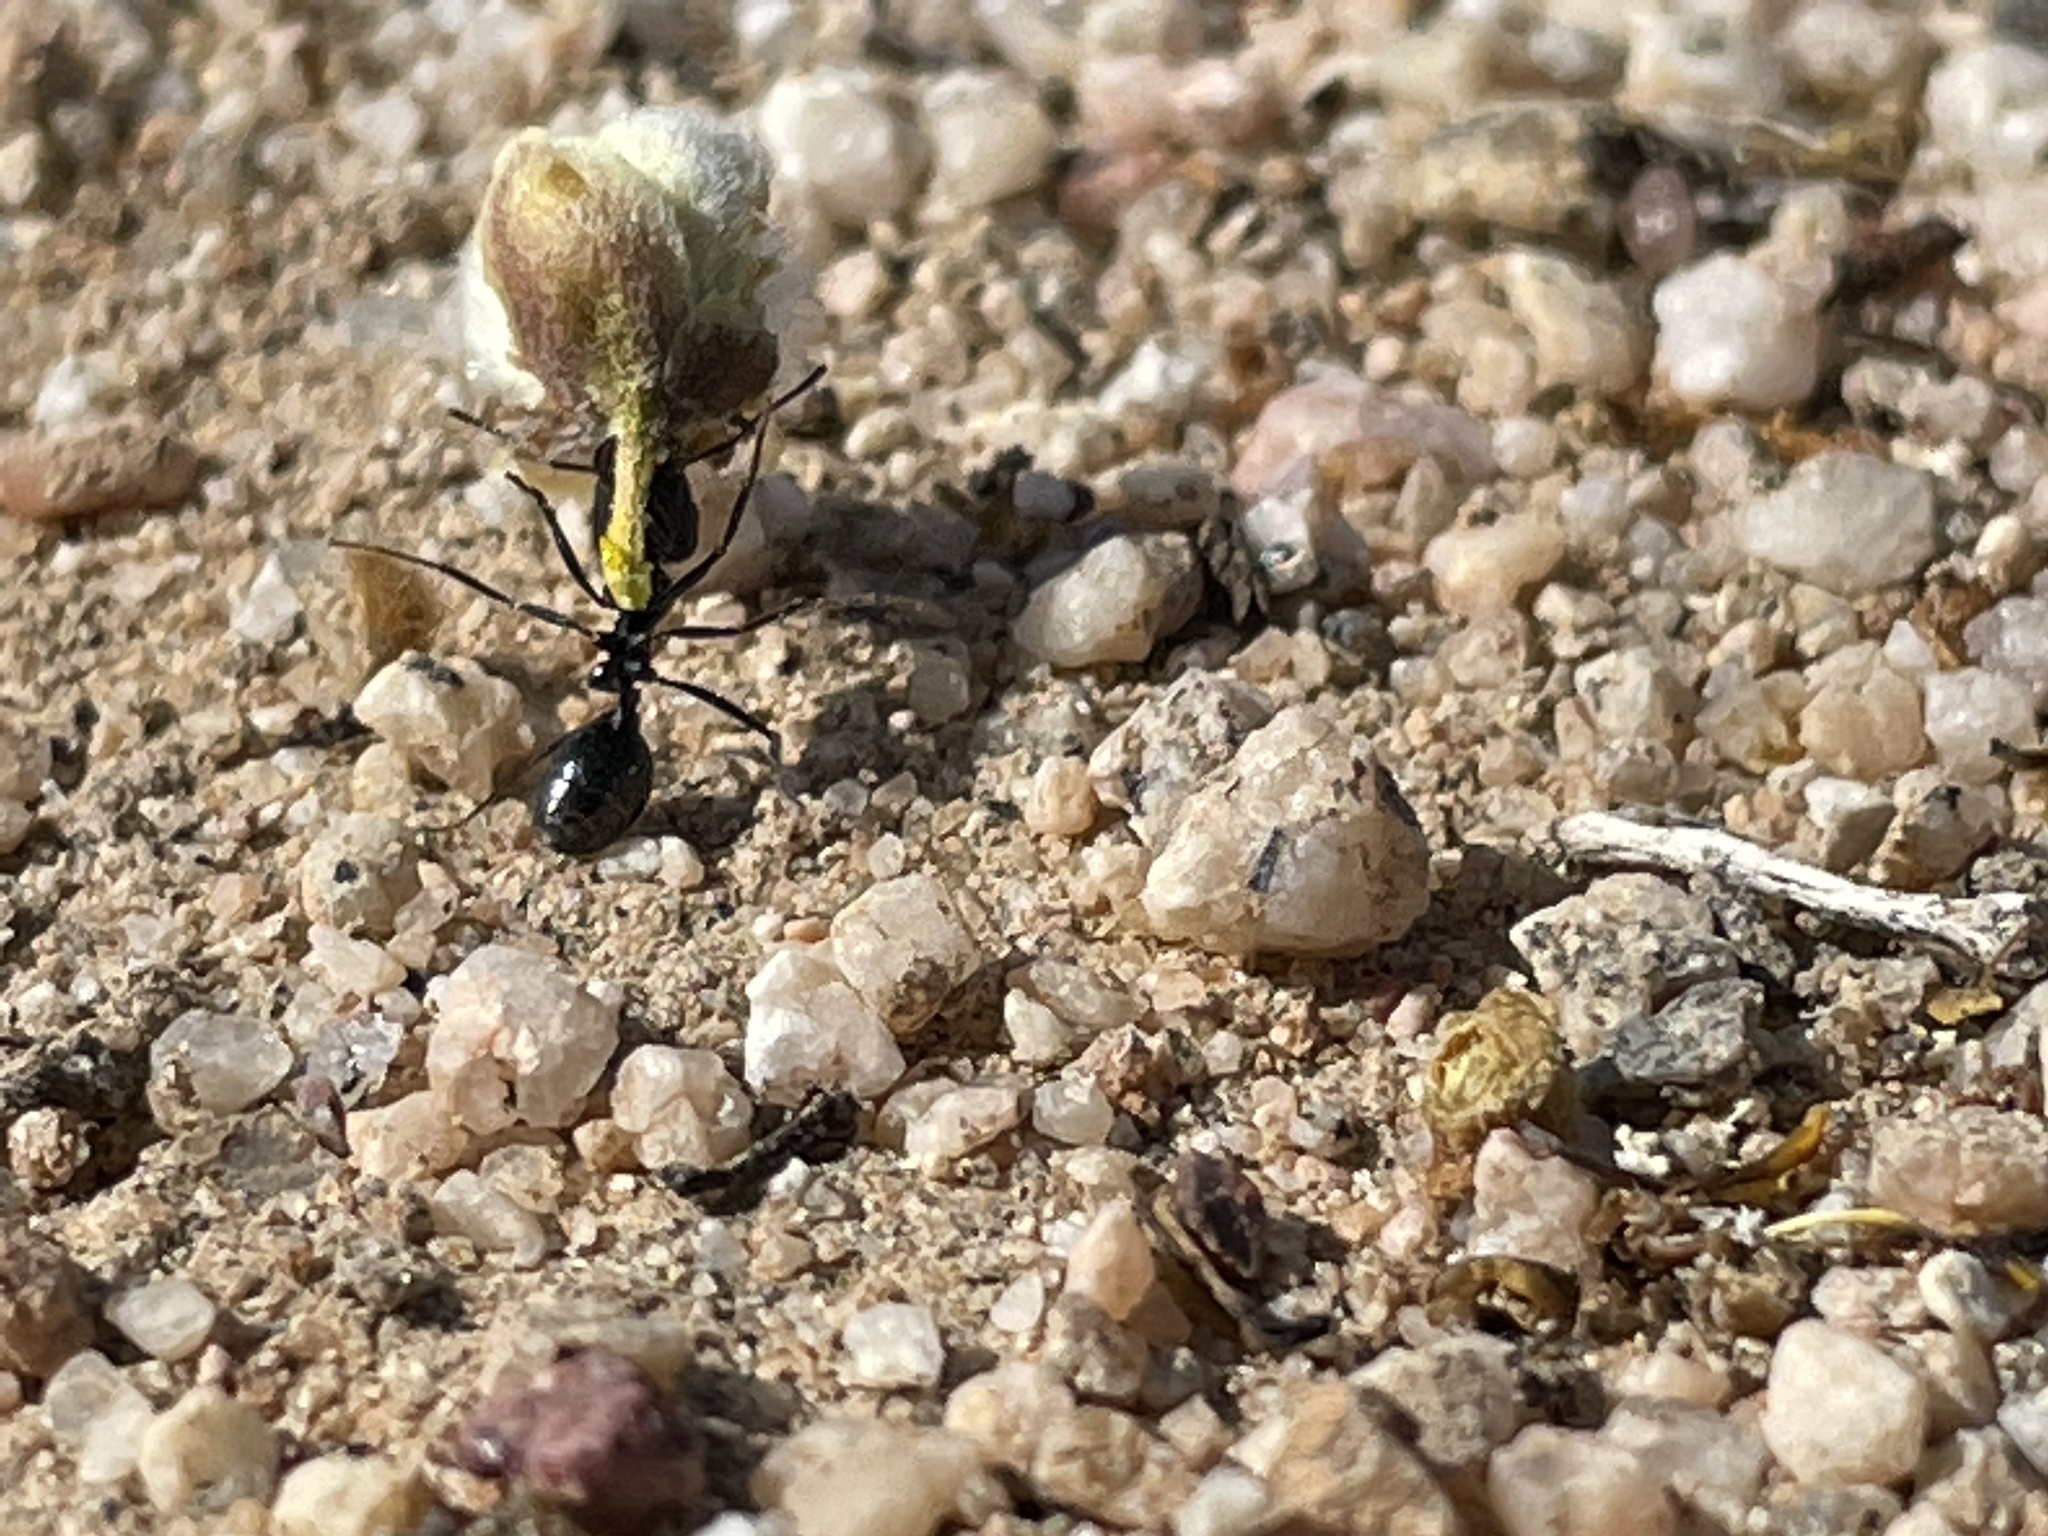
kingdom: Animalia
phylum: Arthropoda
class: Insecta
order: Hymenoptera
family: Formicidae
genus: Messor
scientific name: Messor pergandei
